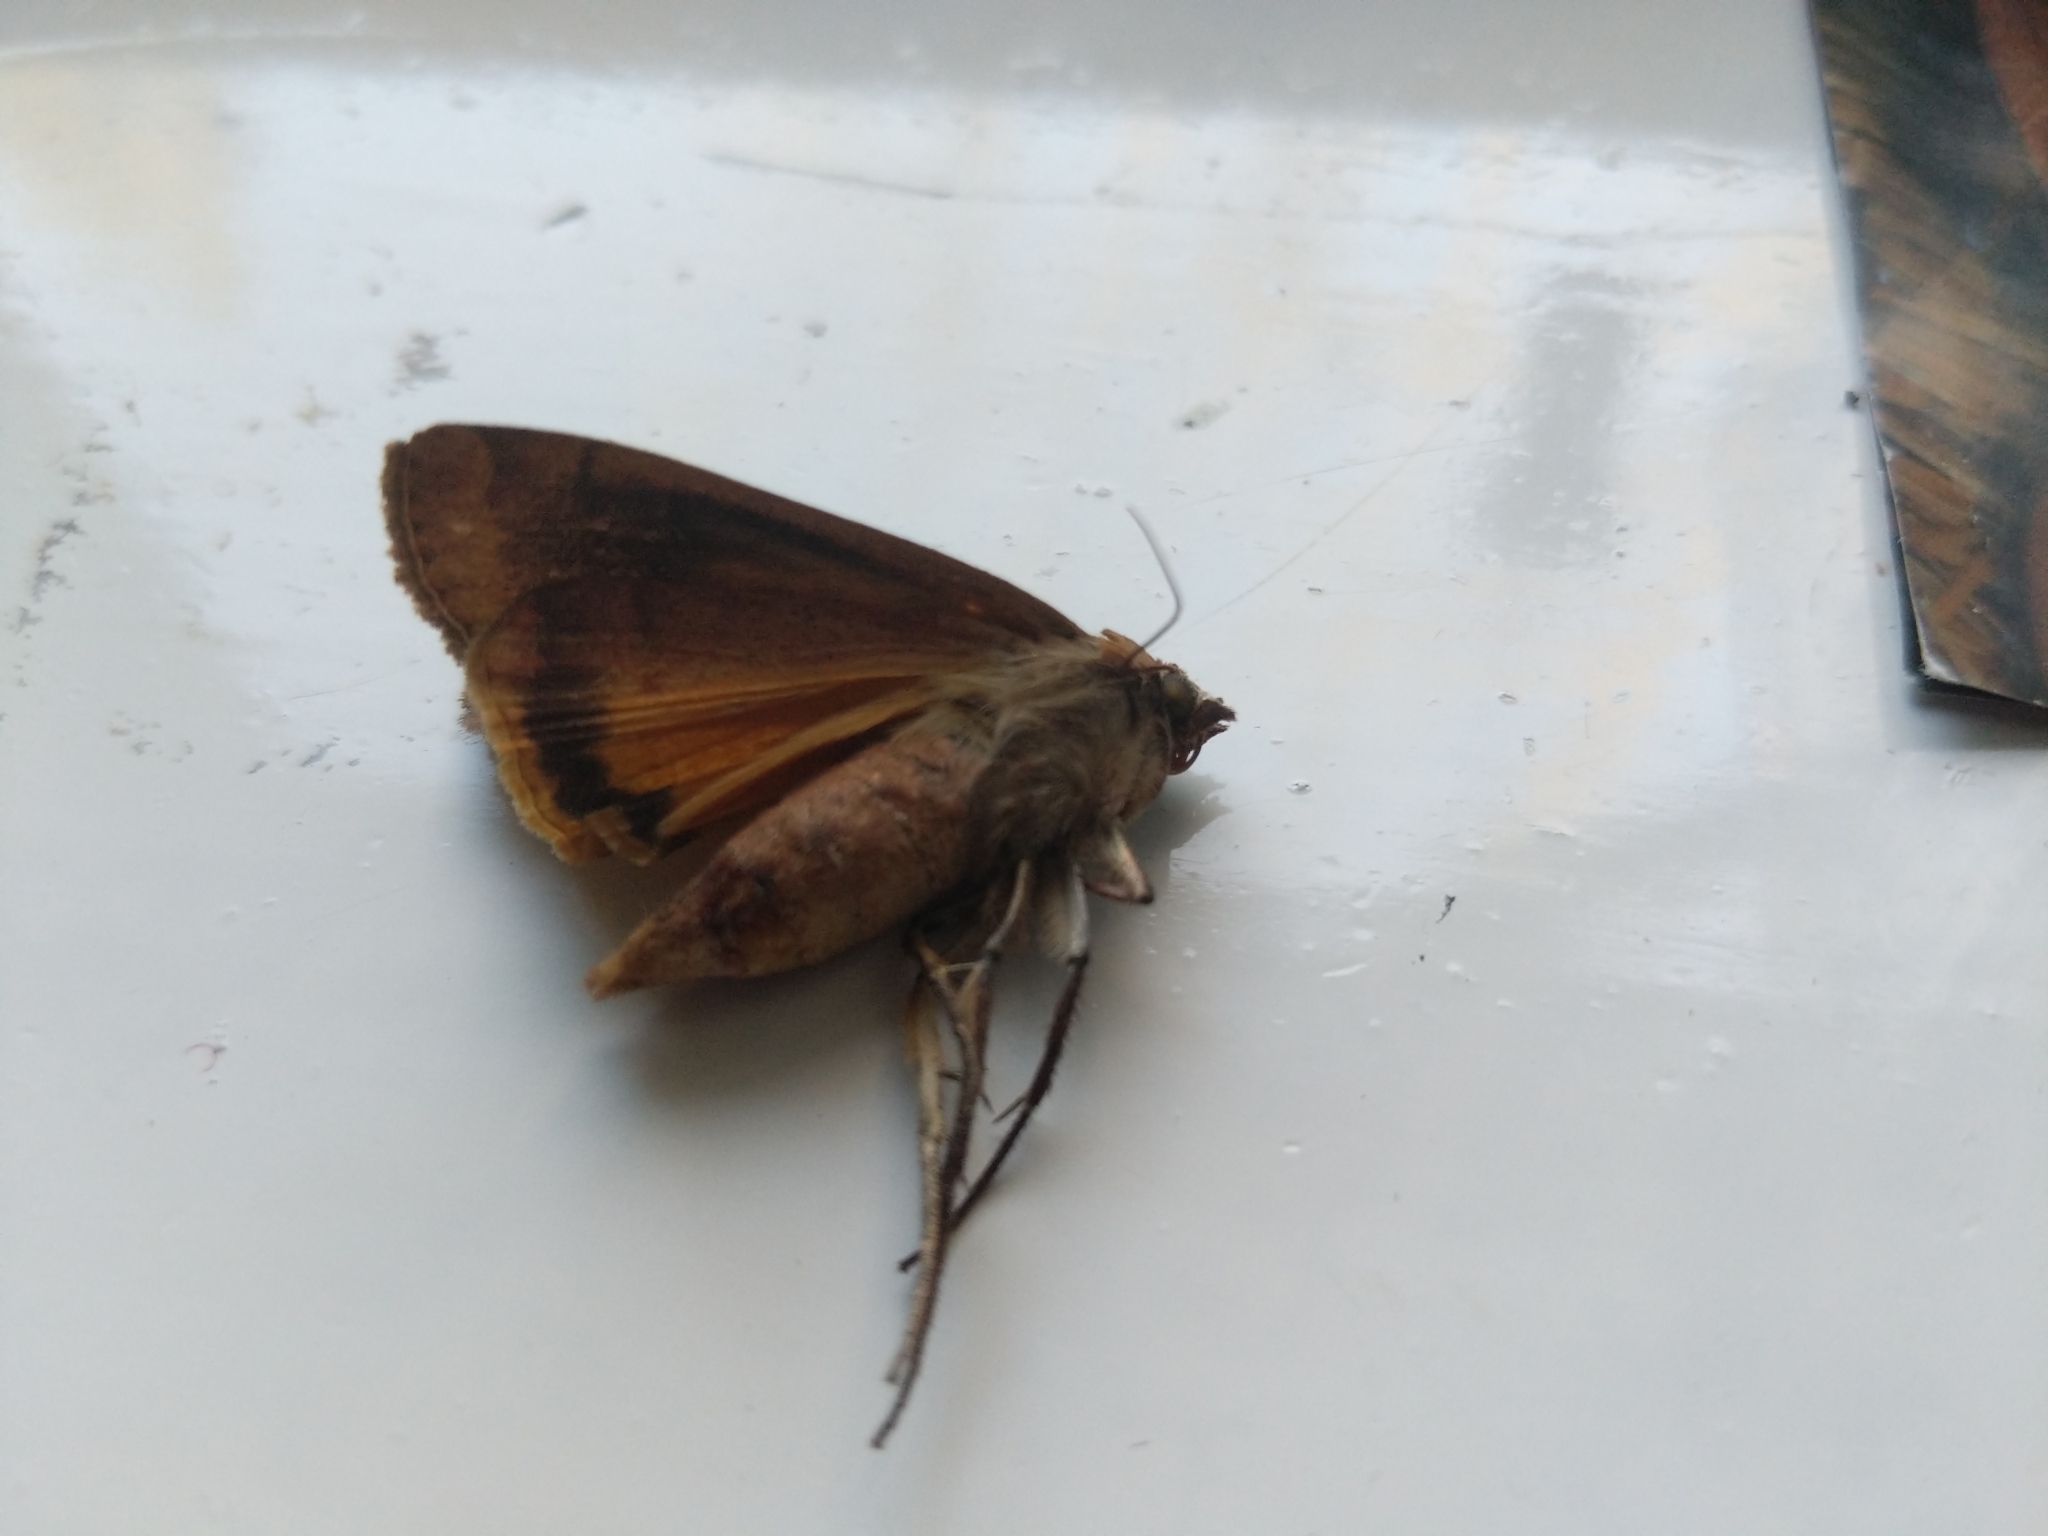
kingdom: Animalia
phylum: Arthropoda
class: Insecta
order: Lepidoptera
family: Noctuidae
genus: Noctua
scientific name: Noctua pronuba
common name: Large yellow underwing
